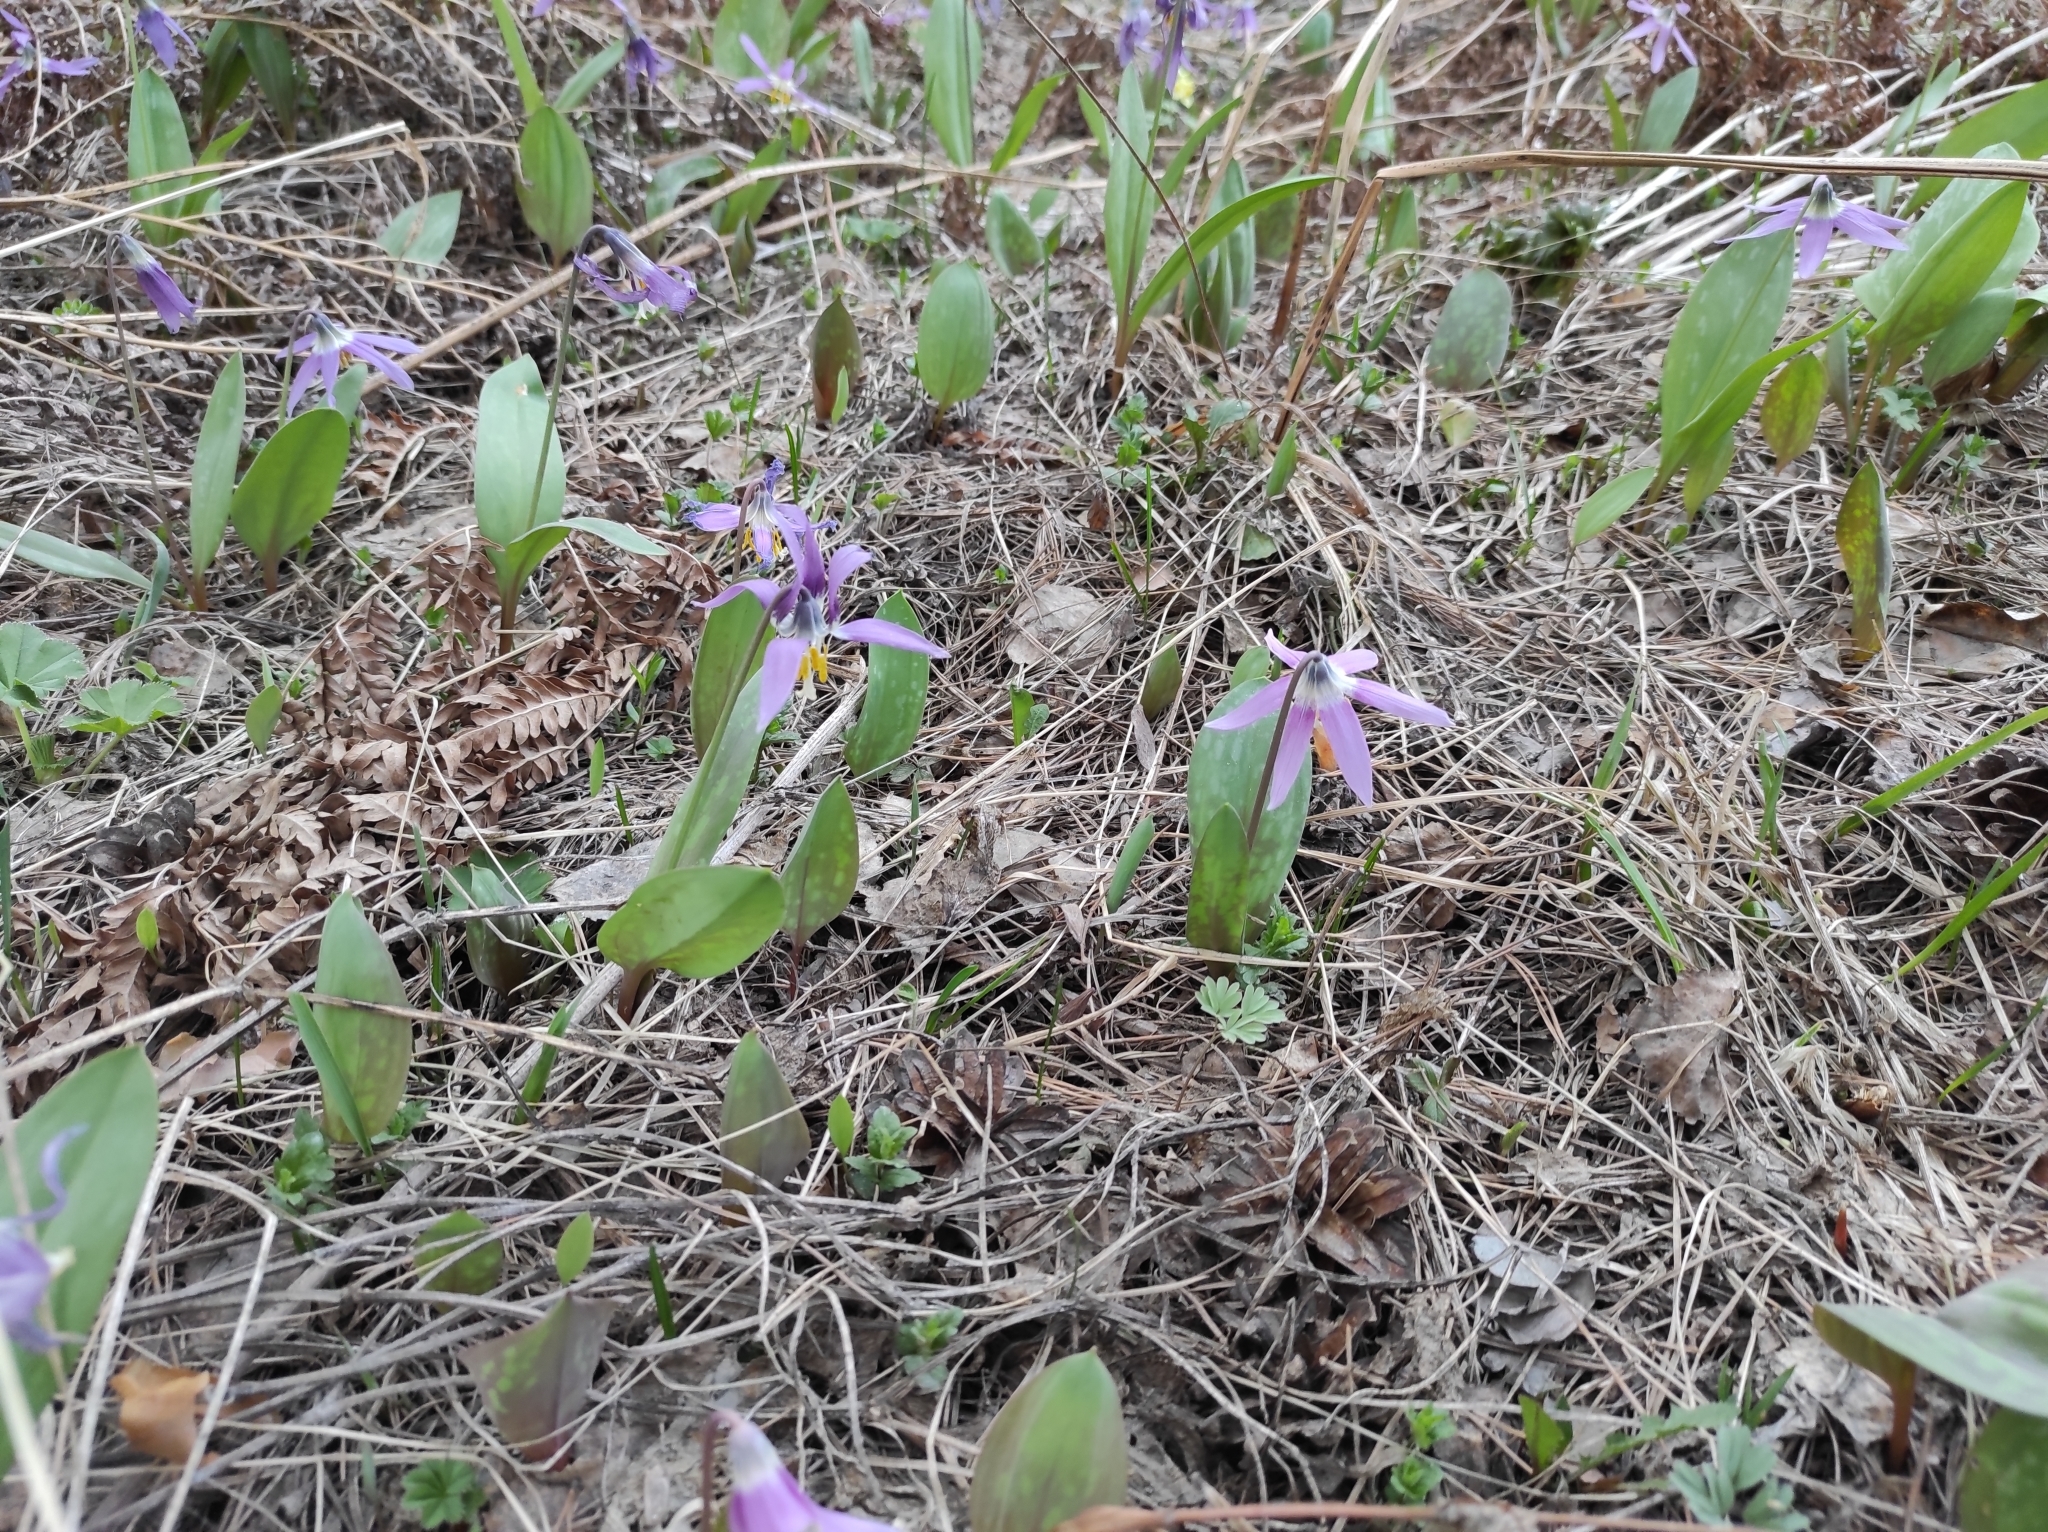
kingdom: Plantae
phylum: Tracheophyta
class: Liliopsida
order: Liliales
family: Liliaceae
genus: Erythronium
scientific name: Erythronium sibiricum
